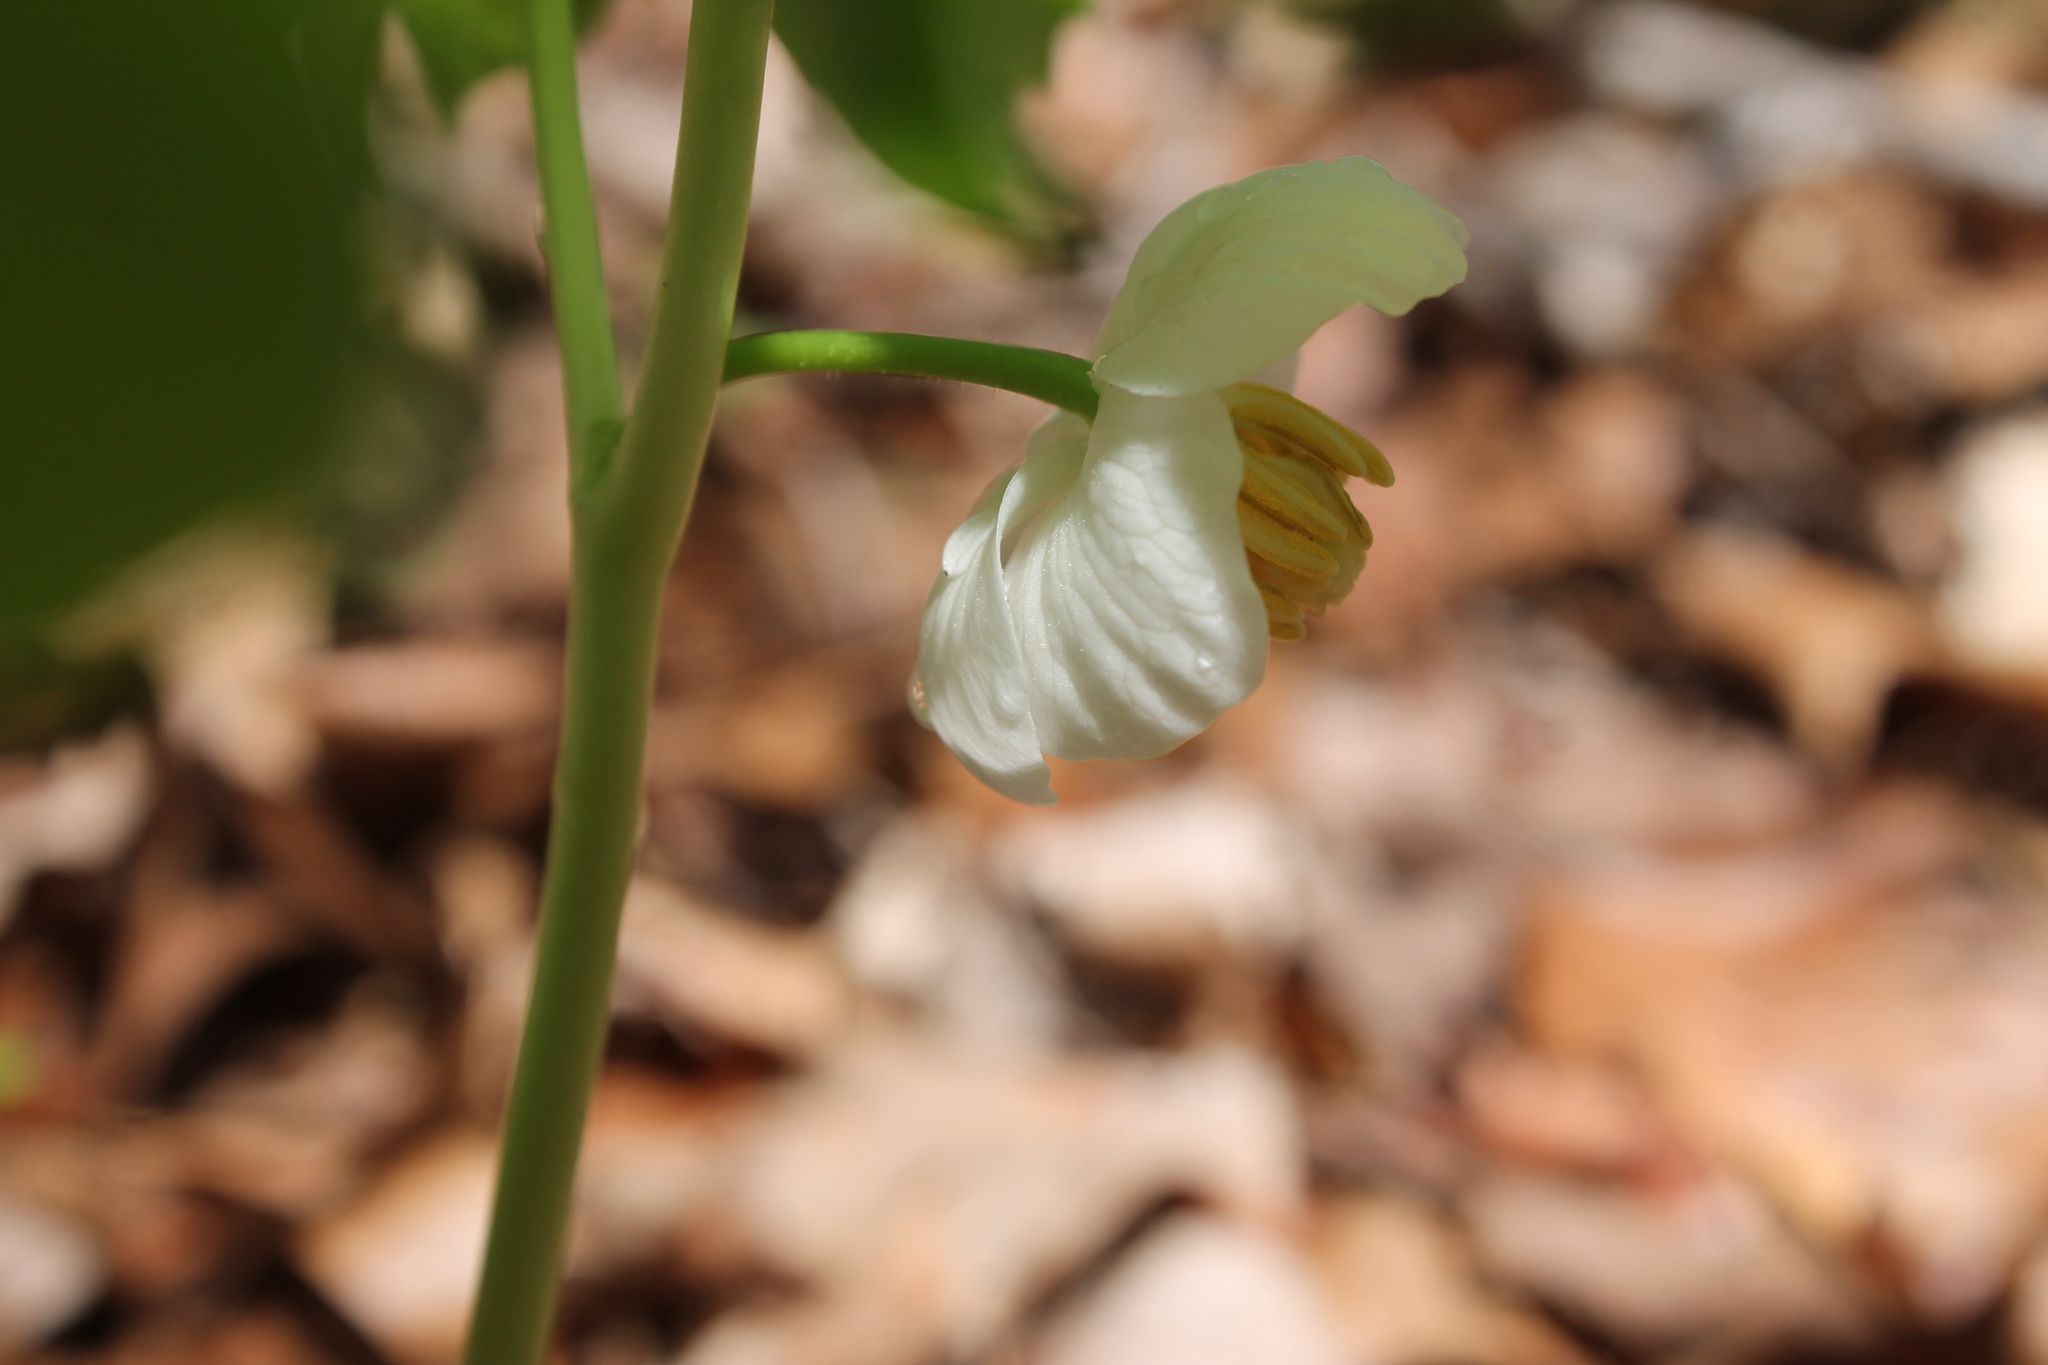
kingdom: Plantae
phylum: Tracheophyta
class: Magnoliopsida
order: Ranunculales
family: Berberidaceae
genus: Podophyllum
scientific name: Podophyllum peltatum
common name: Wild mandrake
